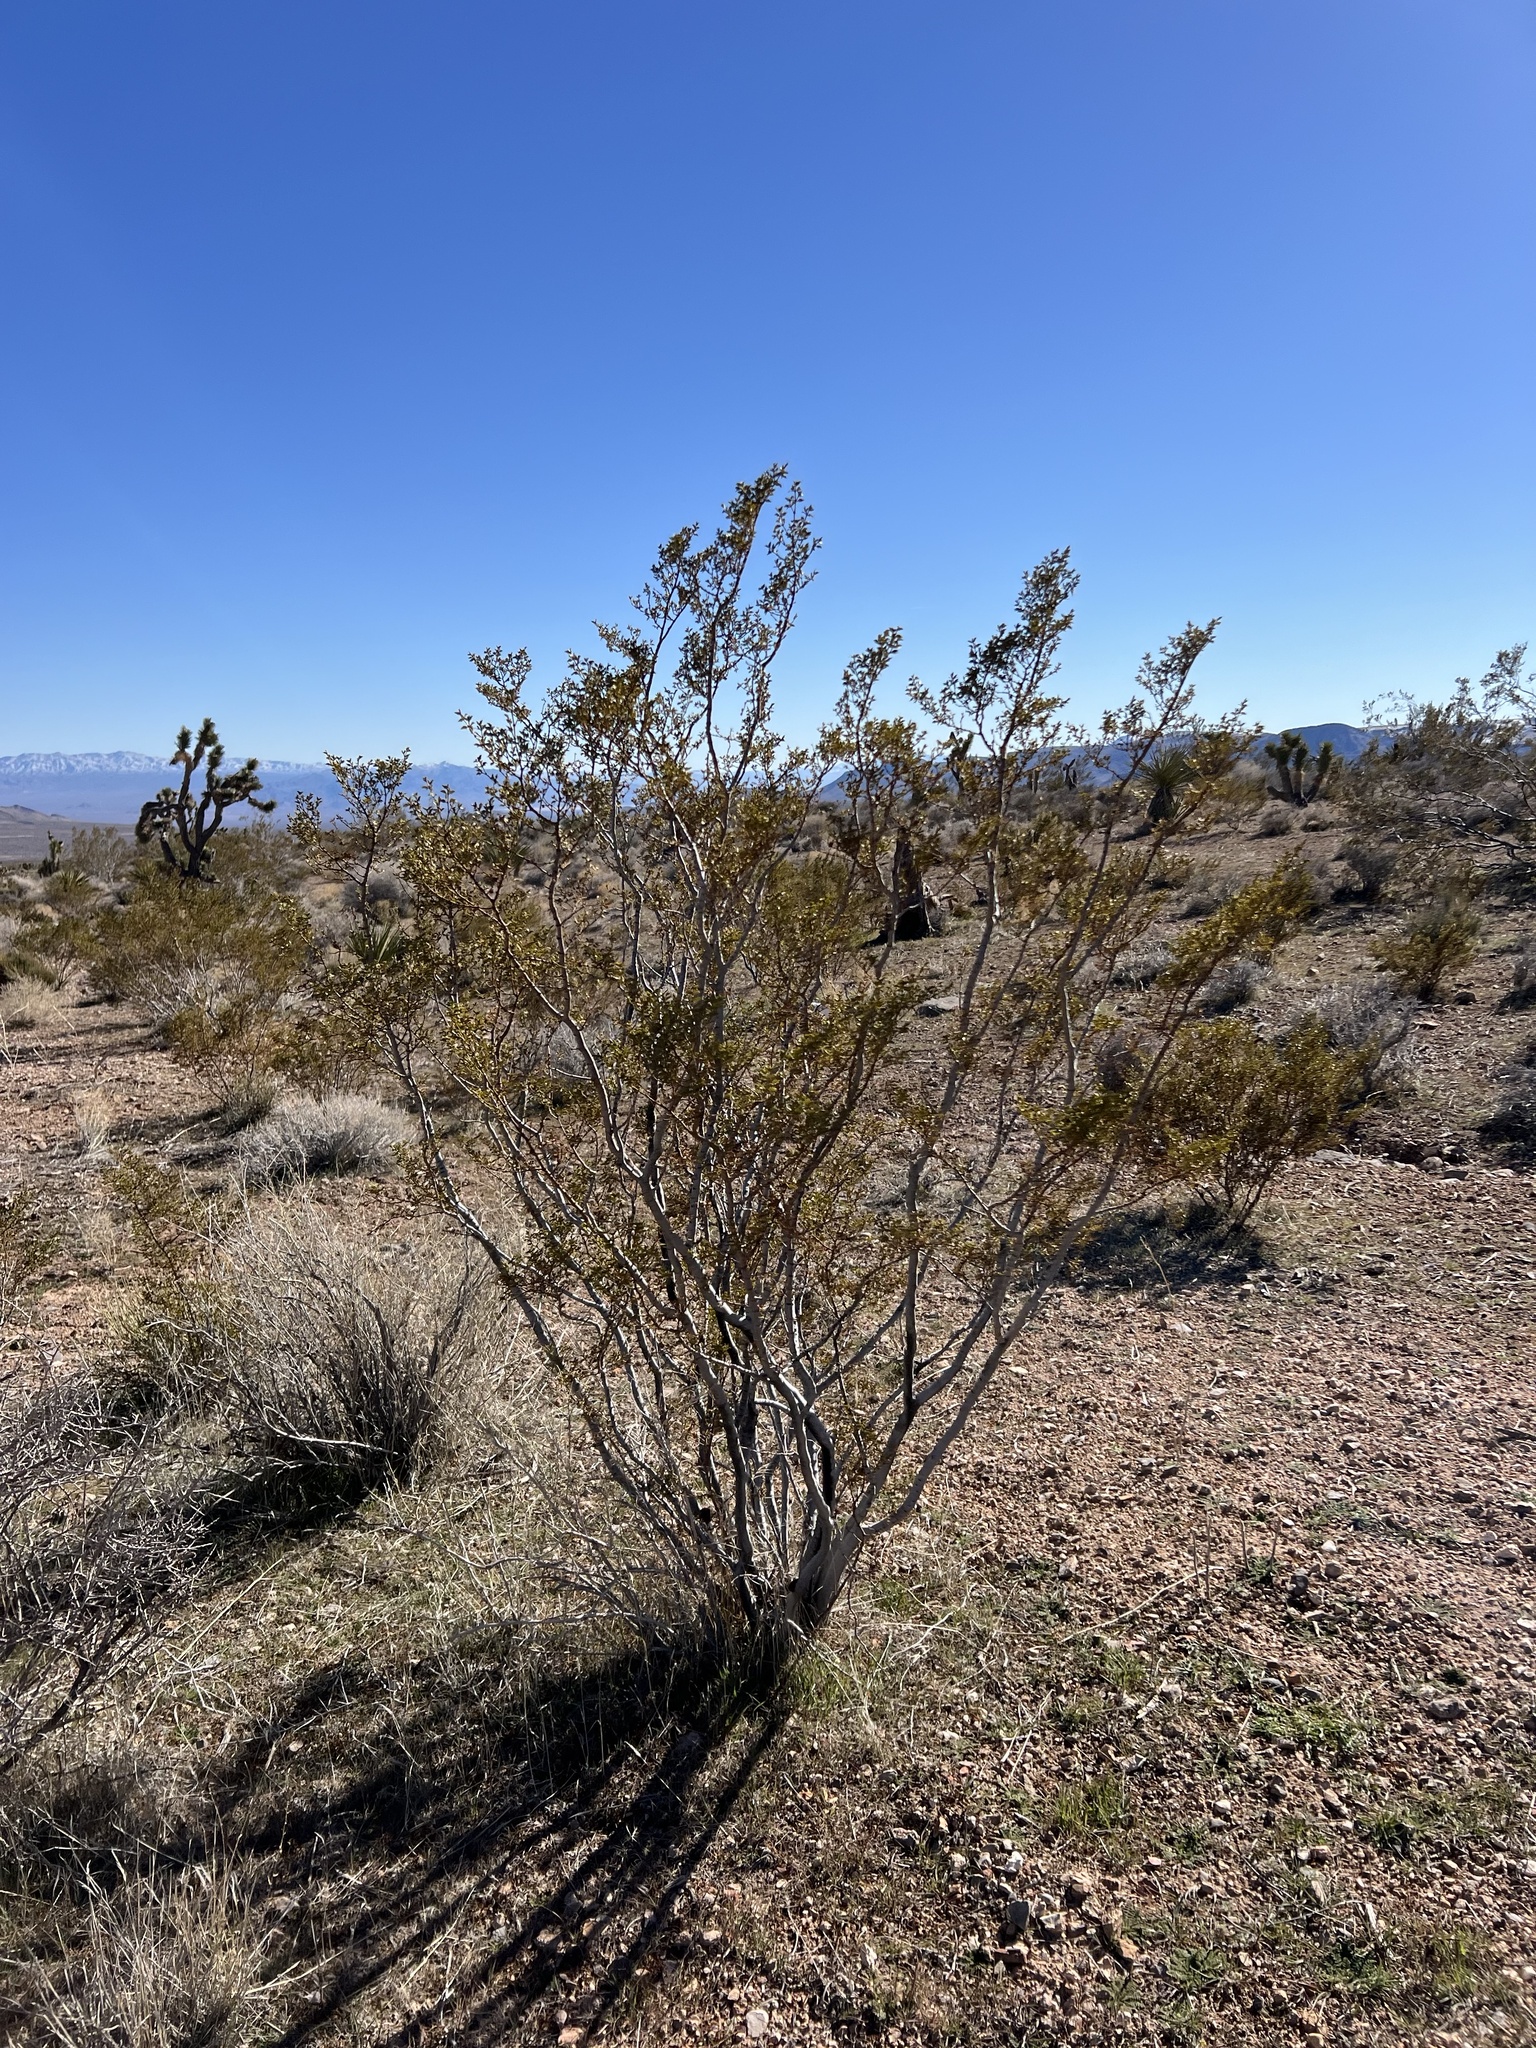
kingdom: Plantae
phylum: Tracheophyta
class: Magnoliopsida
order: Zygophyllales
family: Zygophyllaceae
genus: Larrea
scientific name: Larrea tridentata
